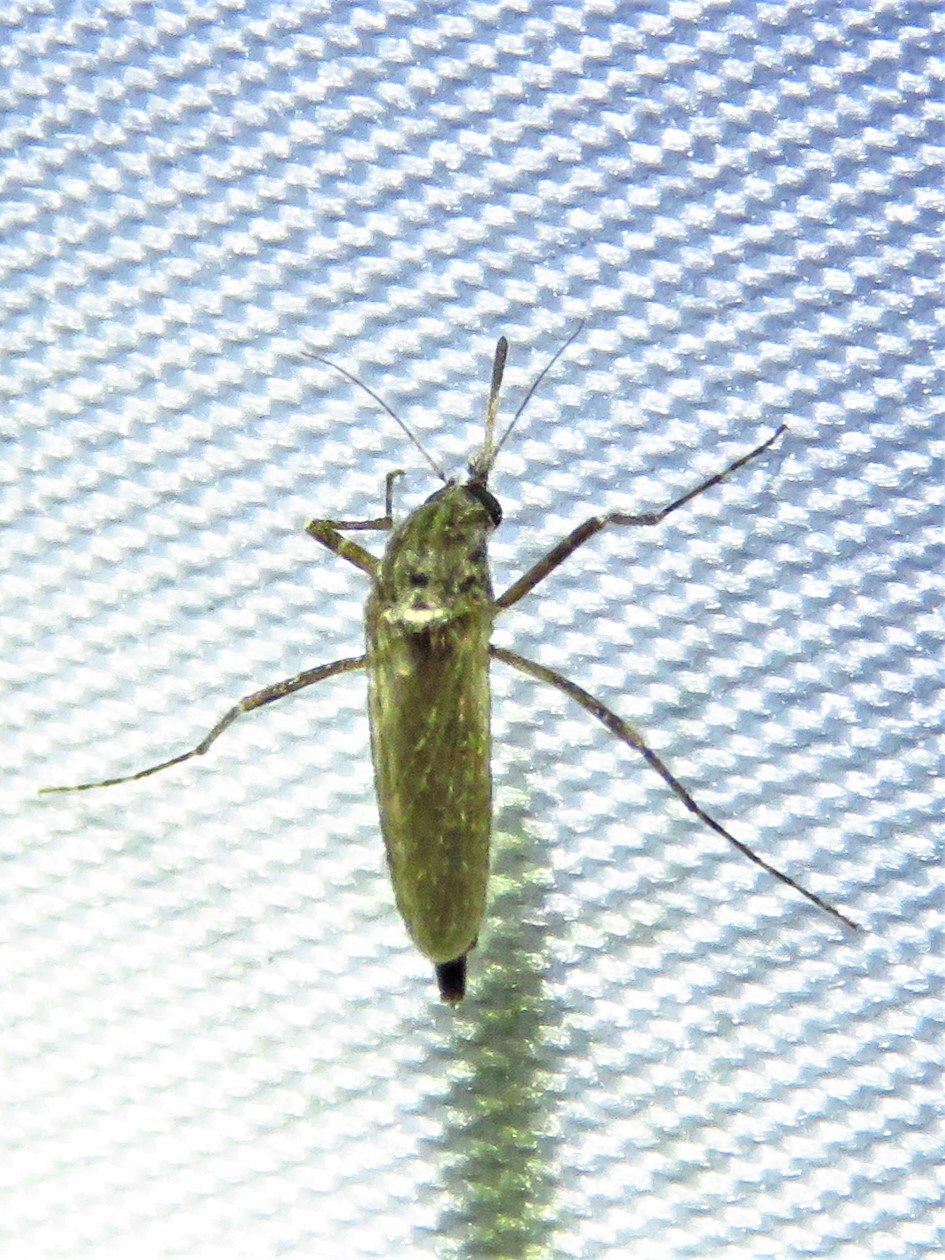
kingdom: Animalia
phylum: Arthropoda
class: Insecta
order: Diptera
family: Culicidae
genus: Psorophora
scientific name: Psorophora columbiae
